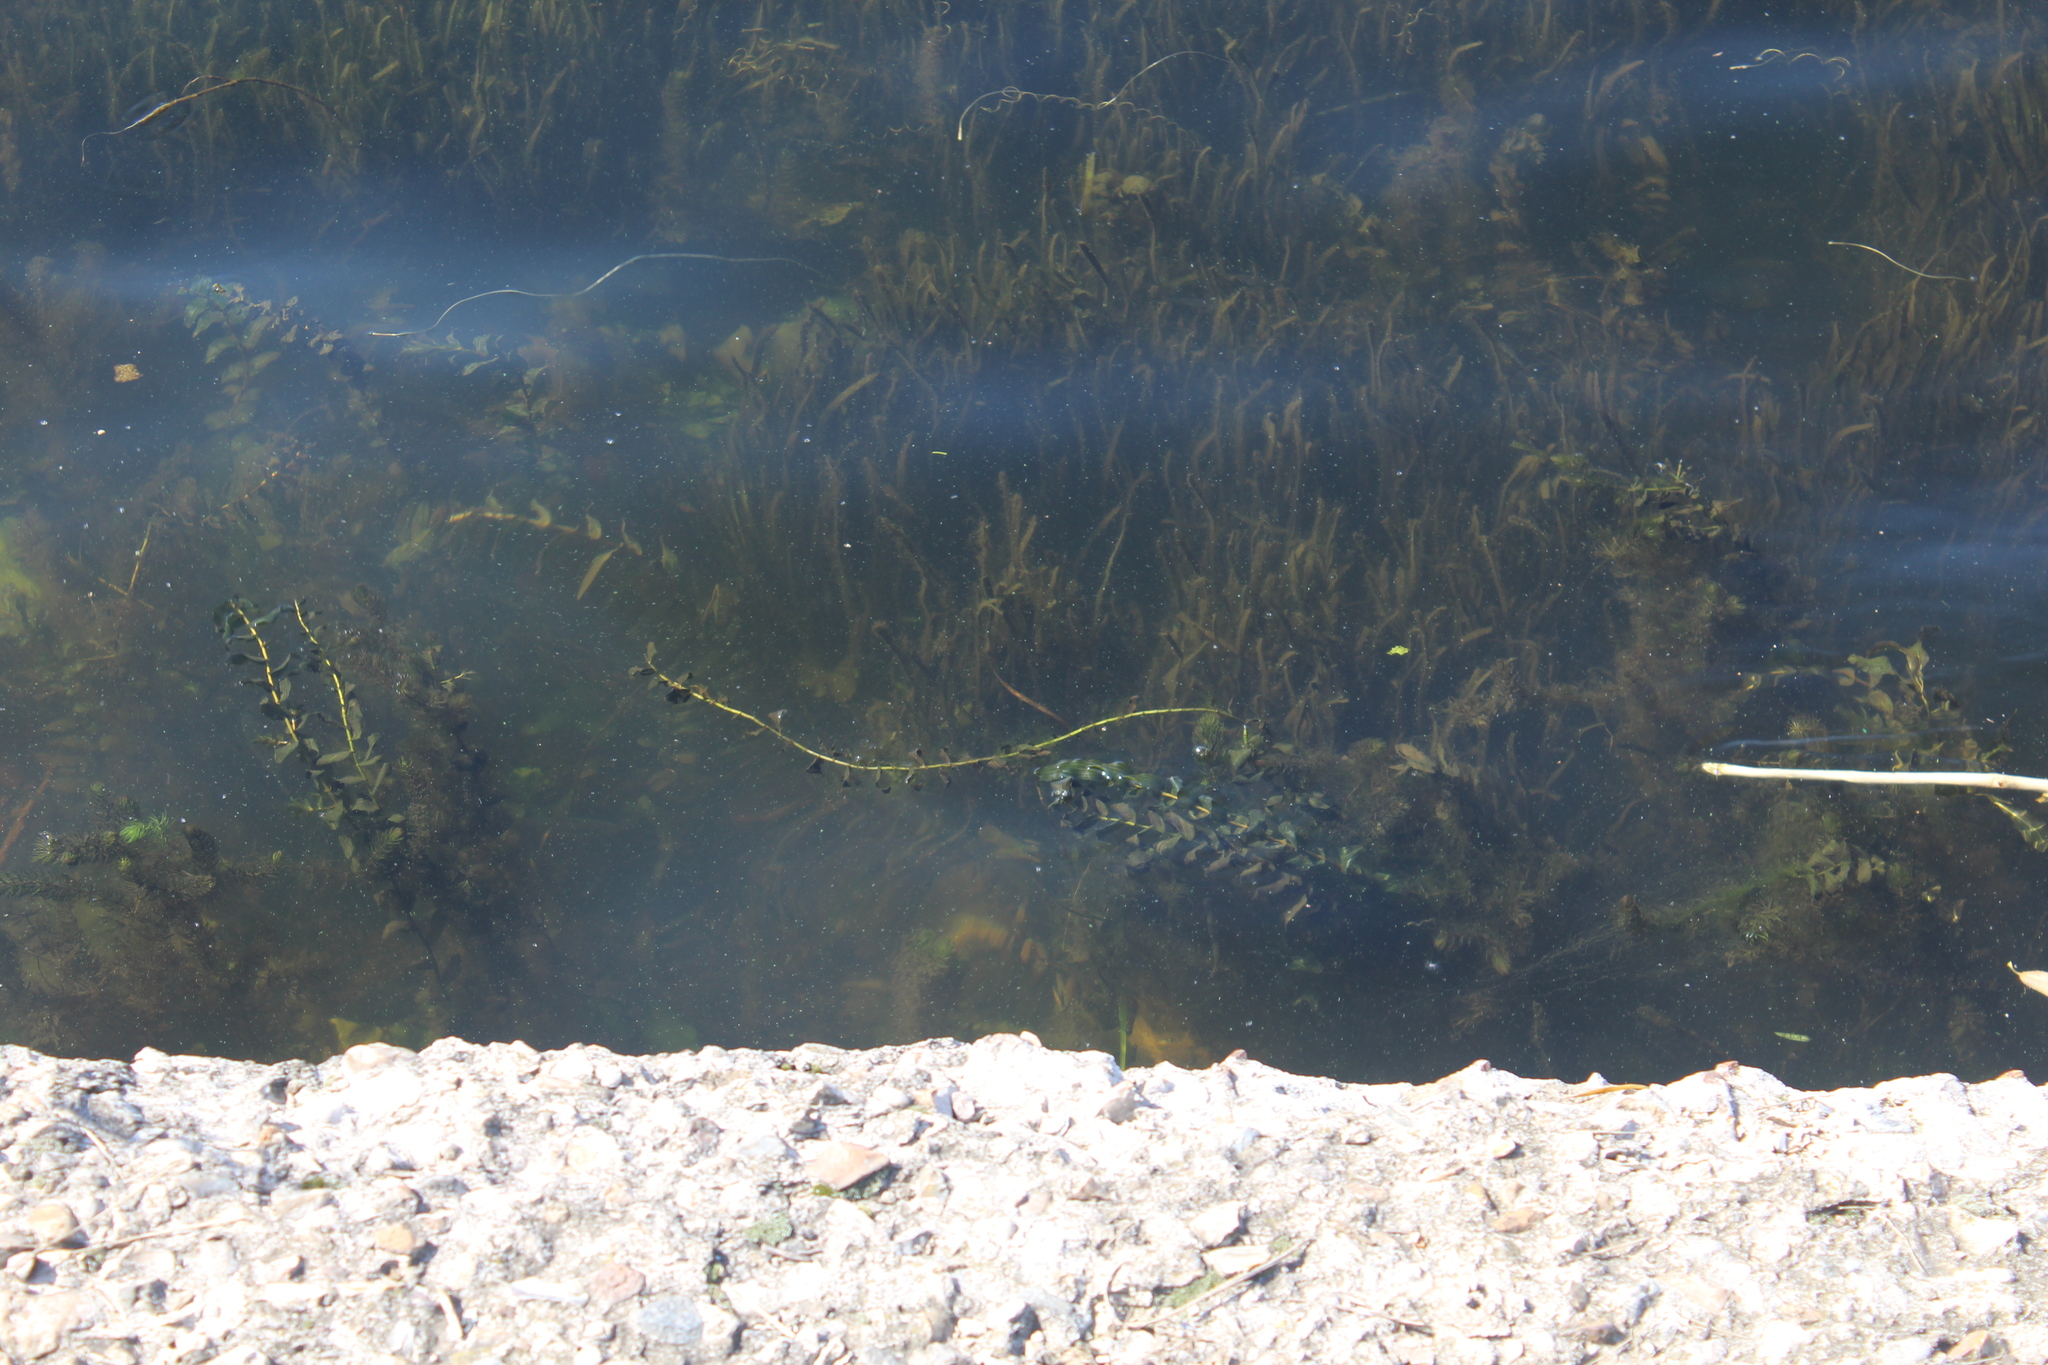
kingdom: Plantae
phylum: Tracheophyta
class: Liliopsida
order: Alismatales
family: Potamogetonaceae
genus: Potamogeton
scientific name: Potamogeton perfoliatus
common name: Perfoliate pondweed
